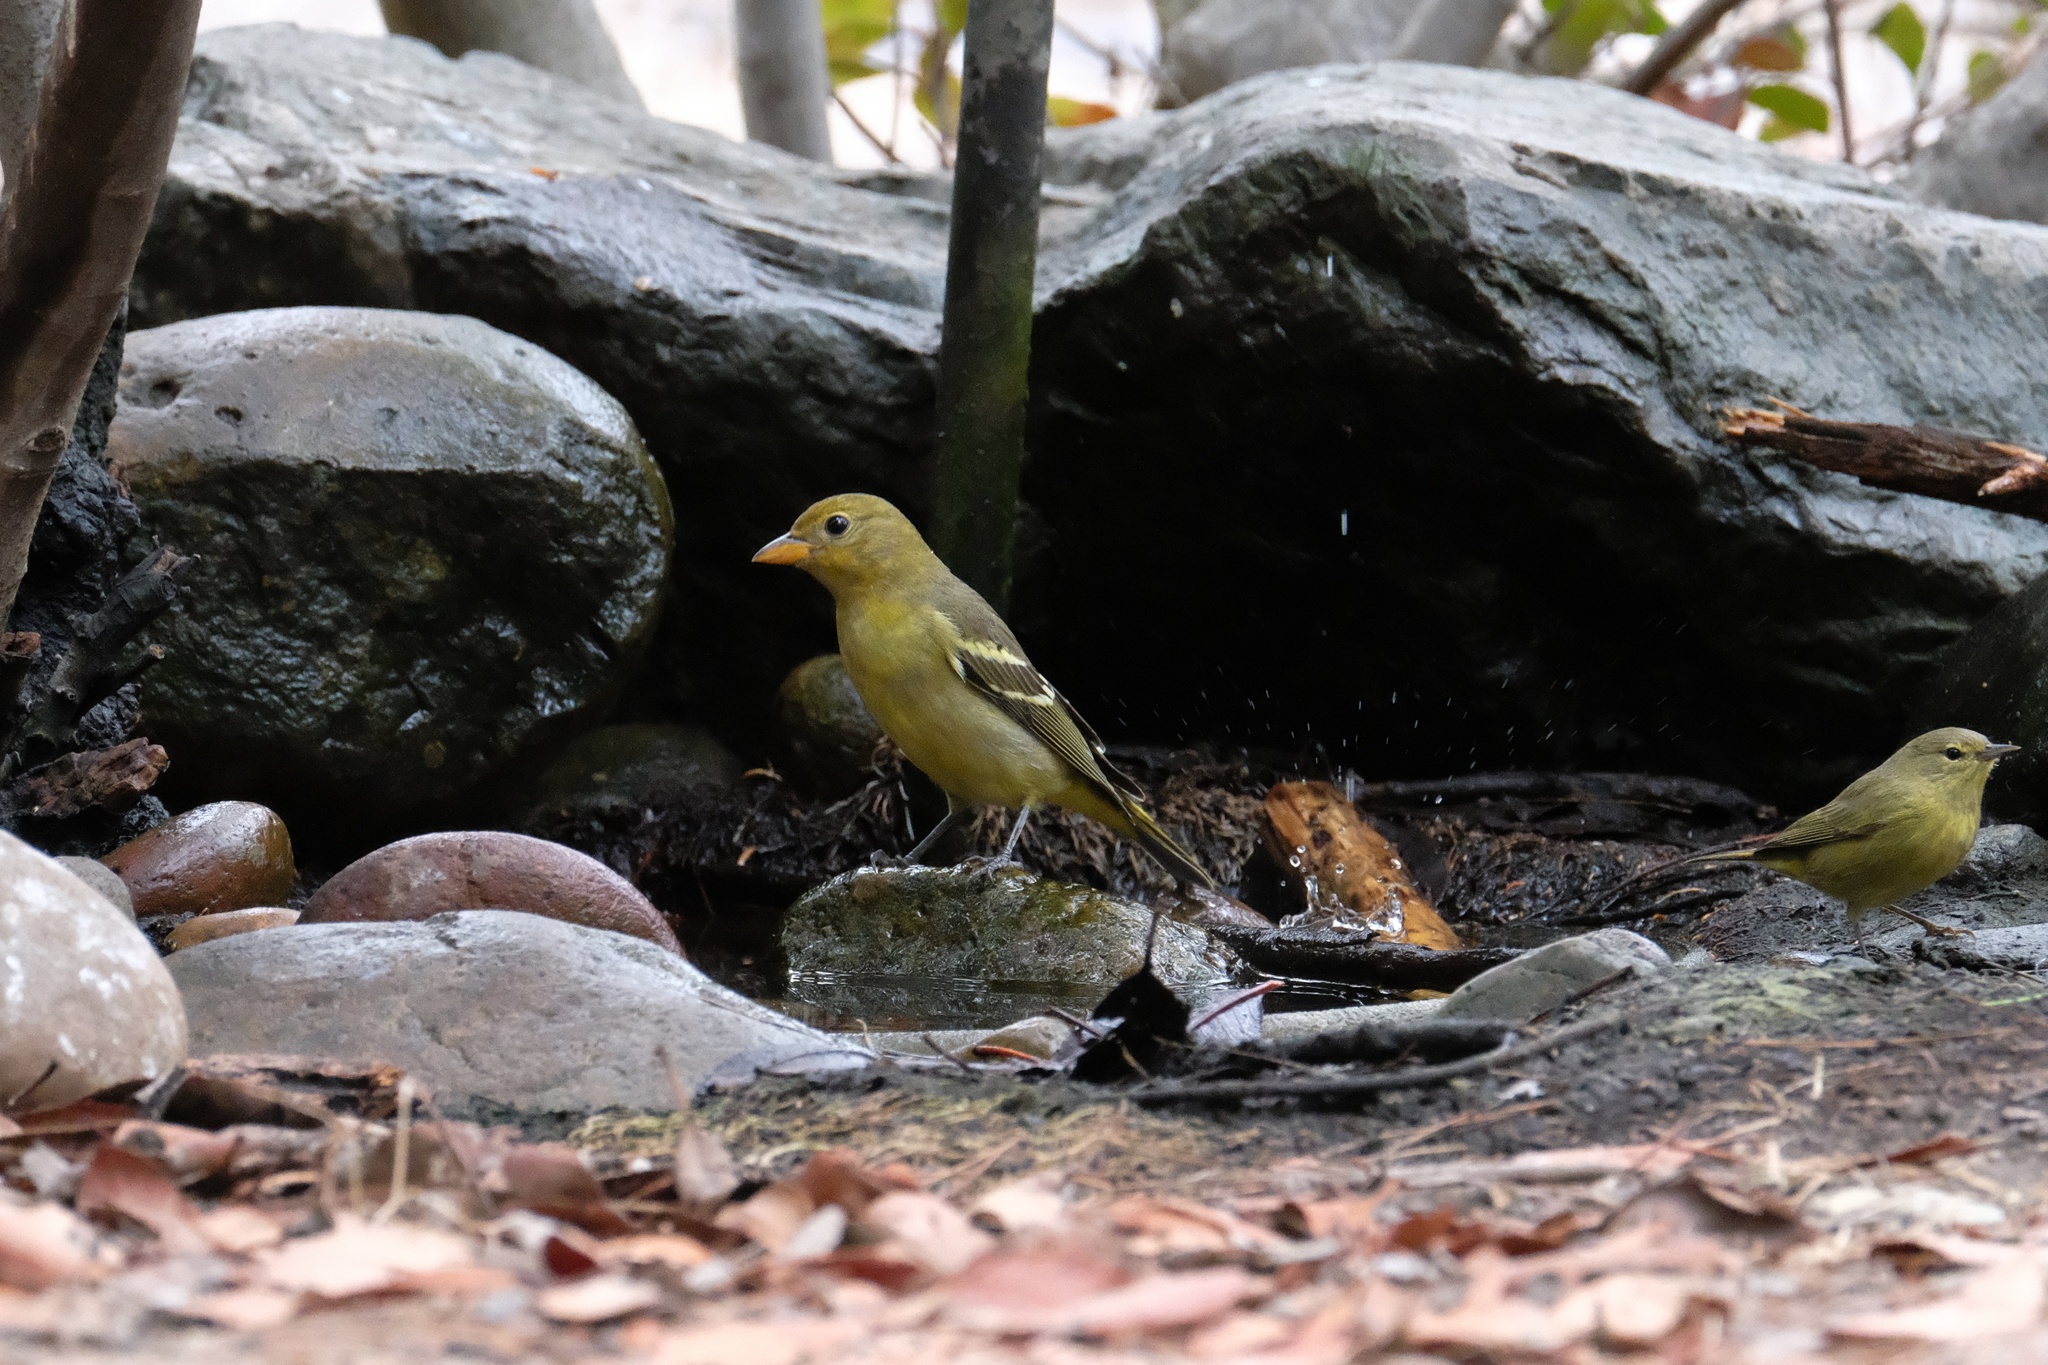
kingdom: Animalia
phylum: Chordata
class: Aves
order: Passeriformes
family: Cardinalidae
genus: Piranga
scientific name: Piranga ludoviciana
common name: Western tanager
